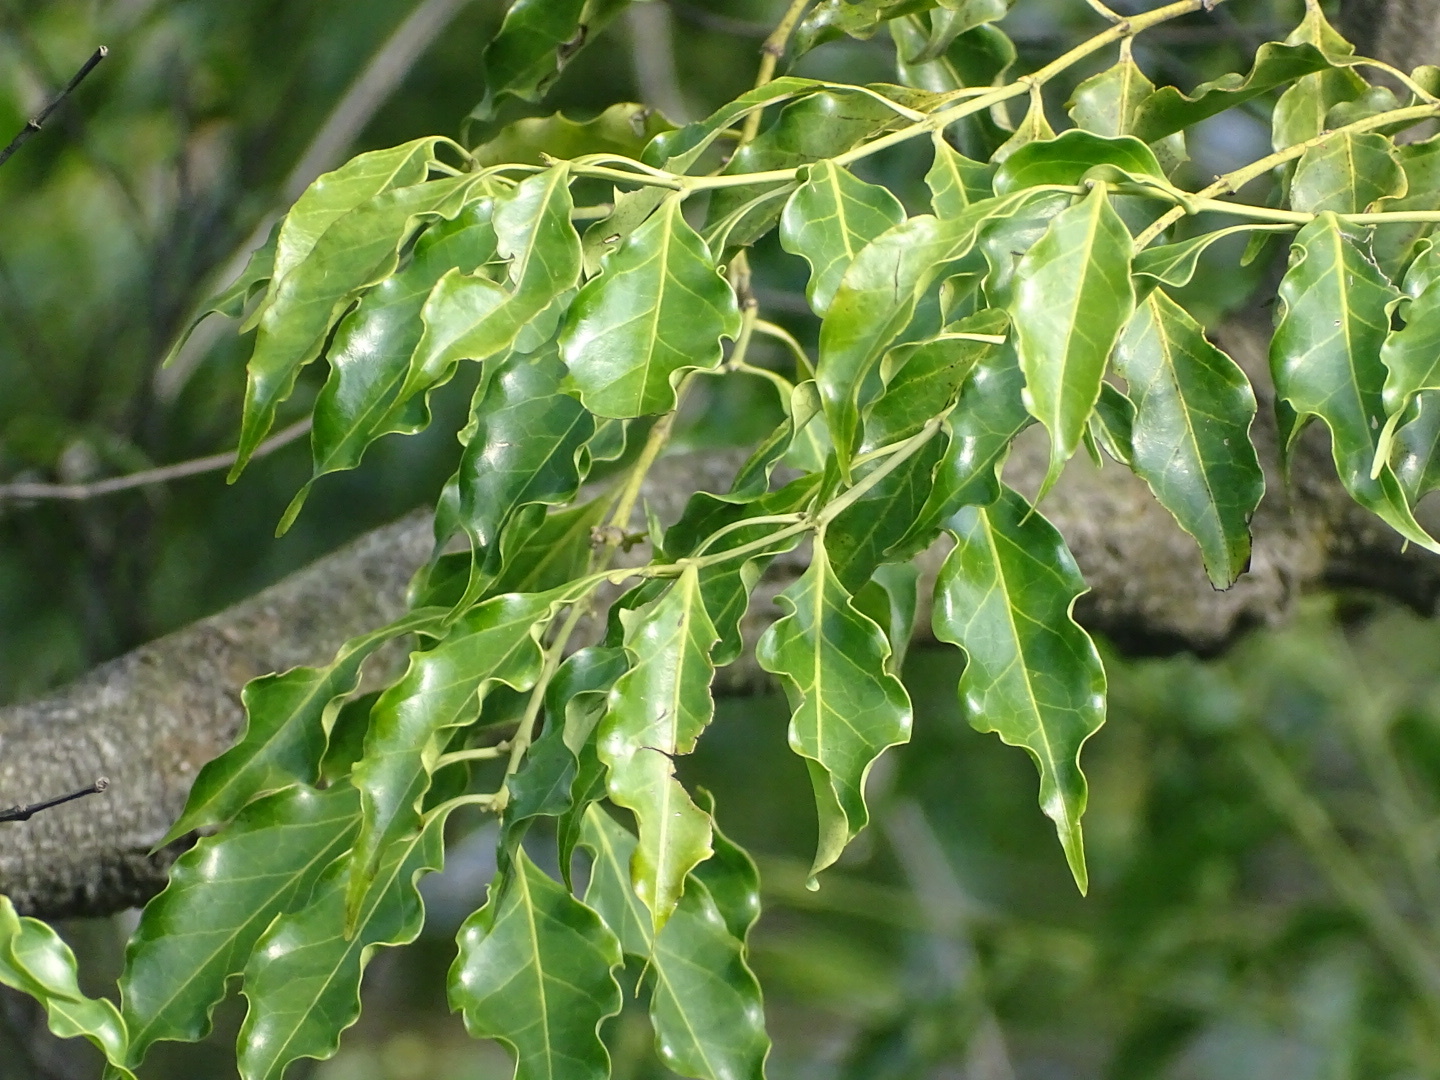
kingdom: Plantae
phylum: Tracheophyta
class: Magnoliopsida
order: Gentianales
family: Rubiaceae
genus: Psydrax
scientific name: Psydrax dicoccos
